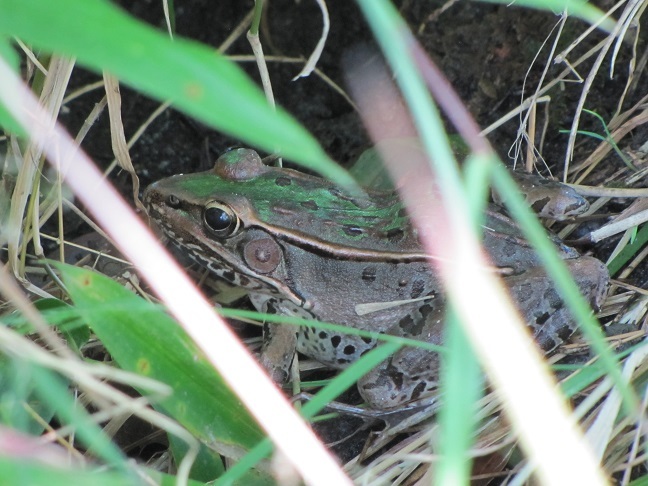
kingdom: Animalia
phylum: Chordata
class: Amphibia
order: Anura
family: Ranidae
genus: Lithobates
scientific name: Lithobates sphenocephalus
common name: Southern leopard frog
